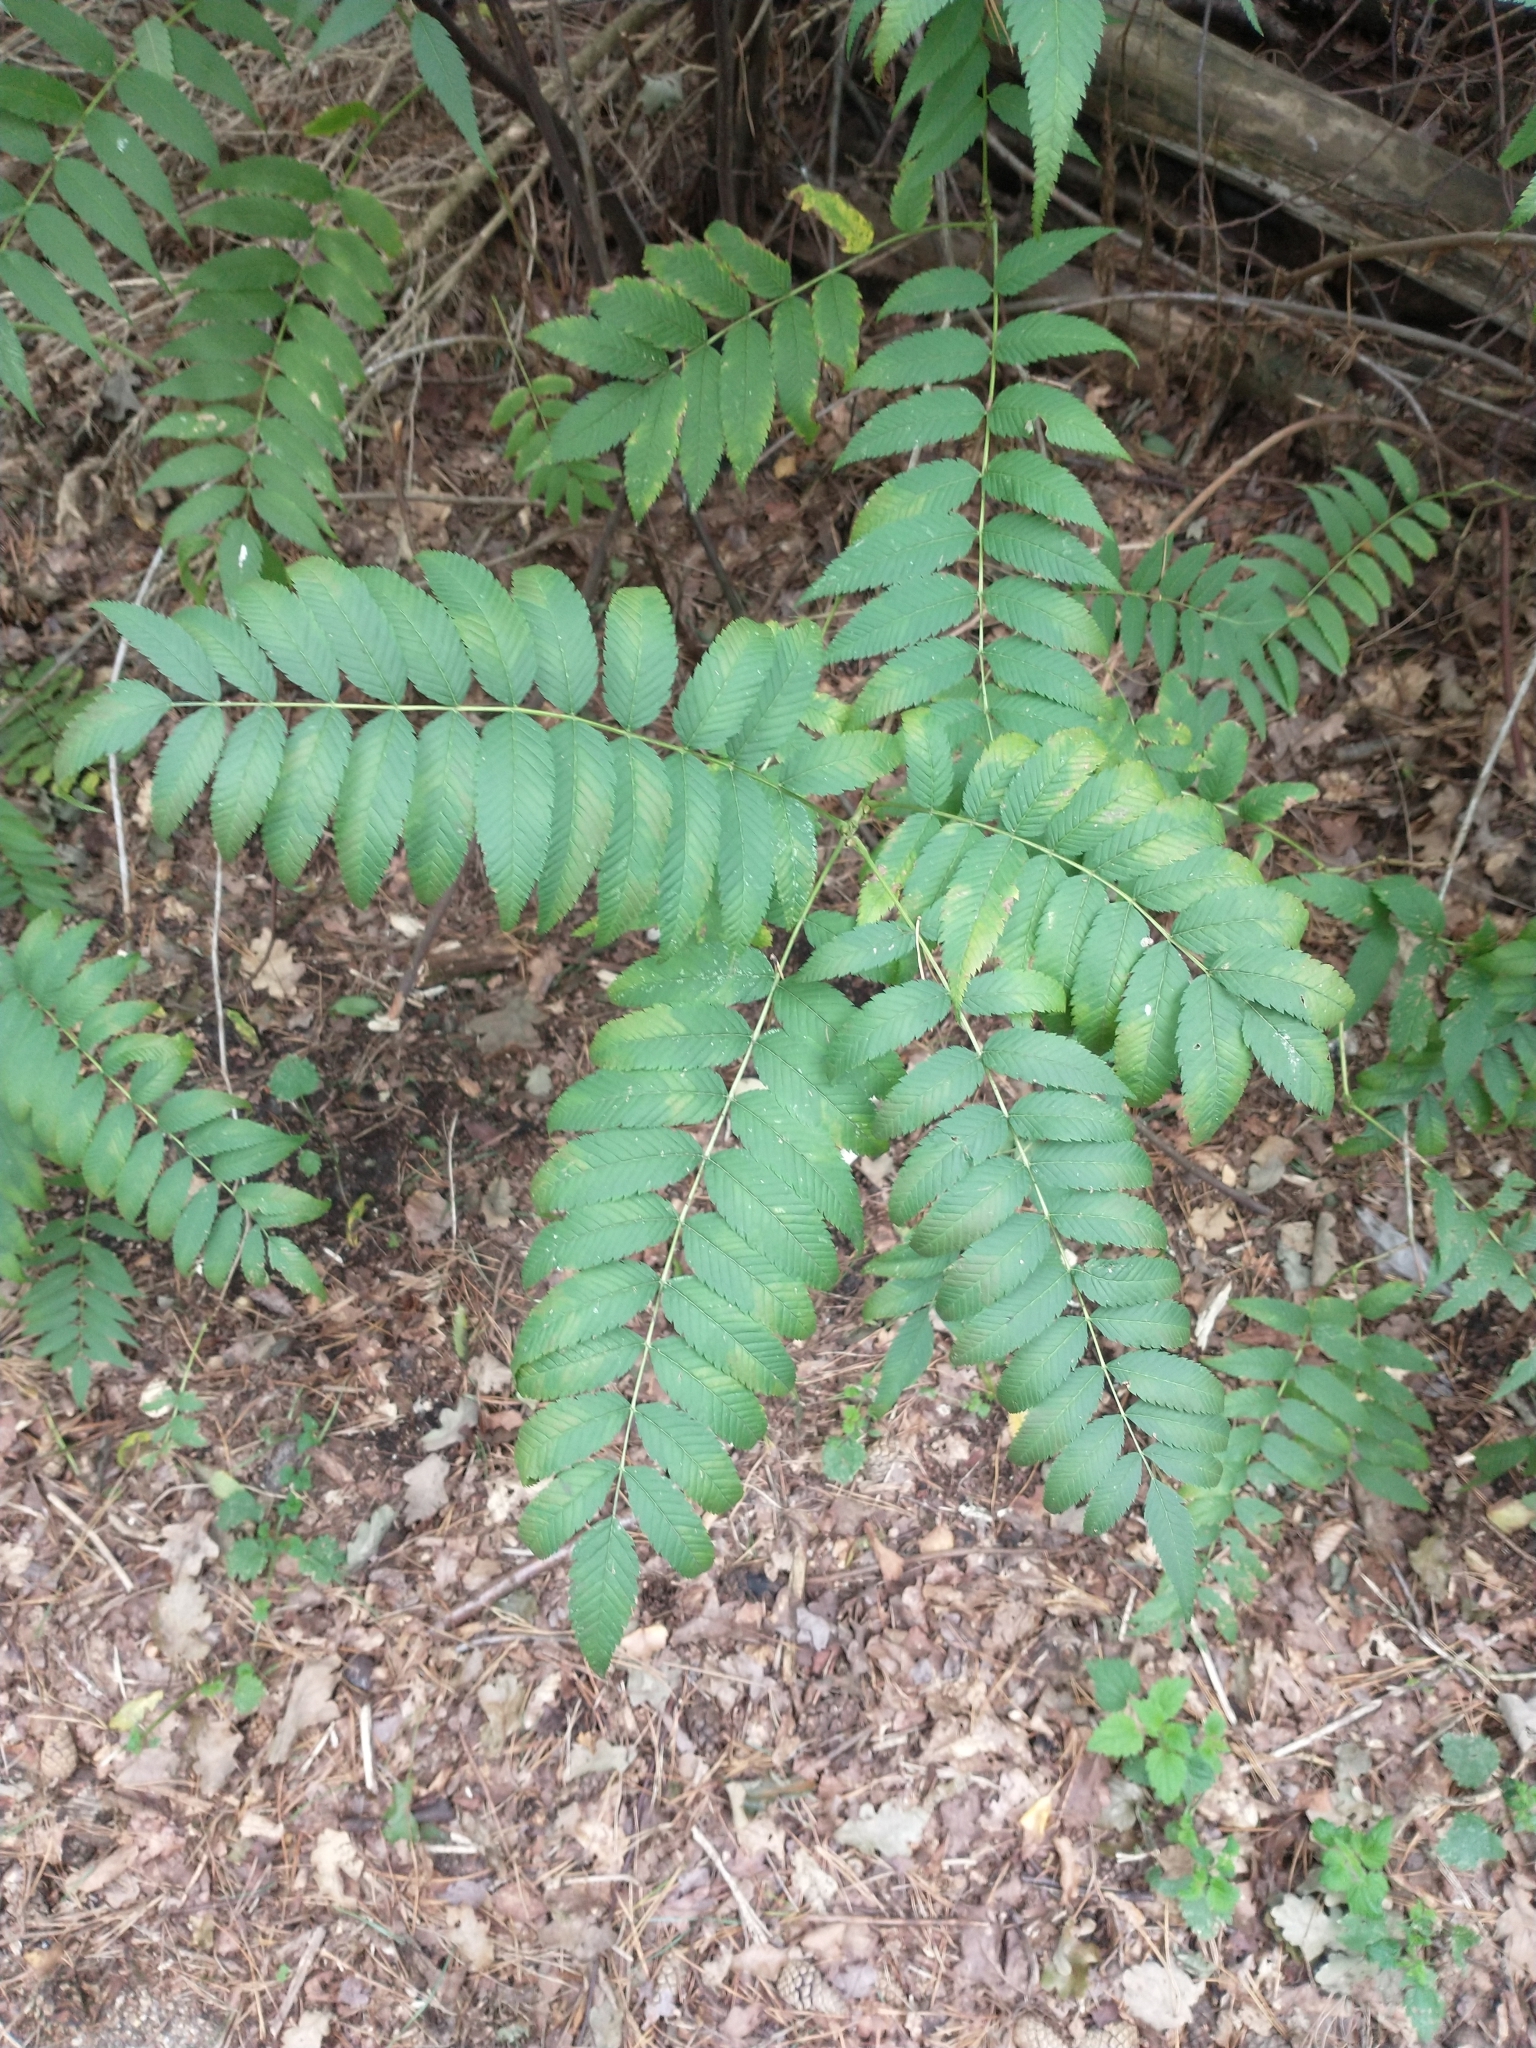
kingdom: Plantae
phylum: Tracheophyta
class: Magnoliopsida
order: Rosales
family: Rosaceae
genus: Sorbaria
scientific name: Sorbaria sorbifolia
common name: False spiraea
